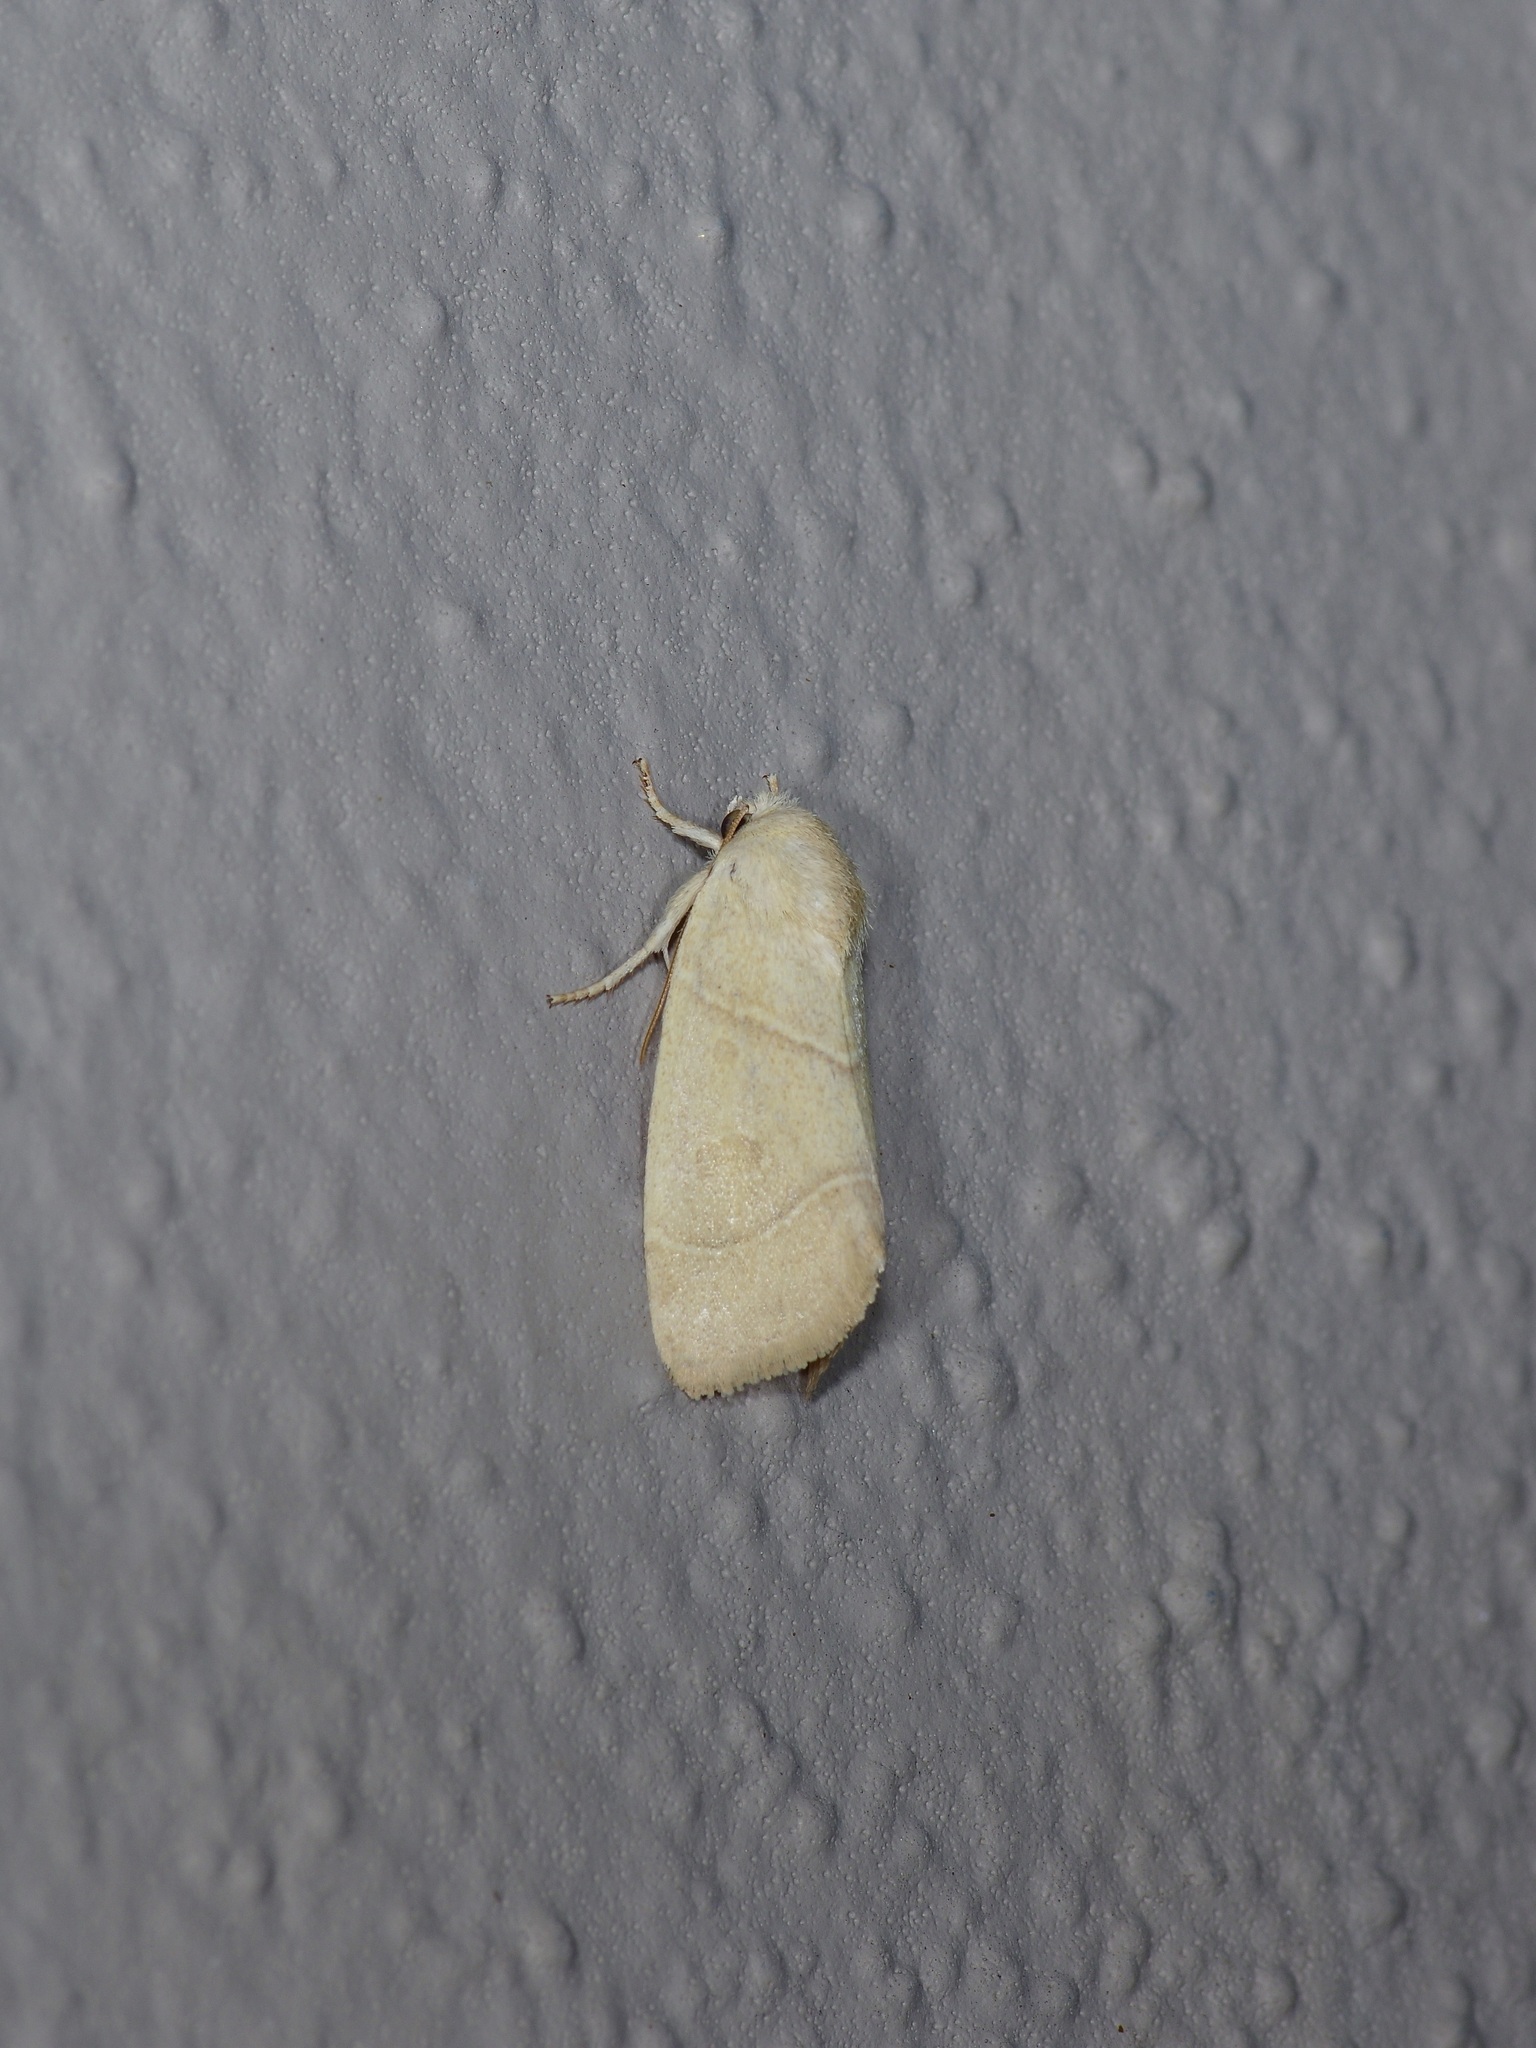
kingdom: Animalia
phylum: Arthropoda
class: Insecta
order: Lepidoptera
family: Noctuidae
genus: Cosmia
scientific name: Cosmia calami
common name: American dun-bar moth
